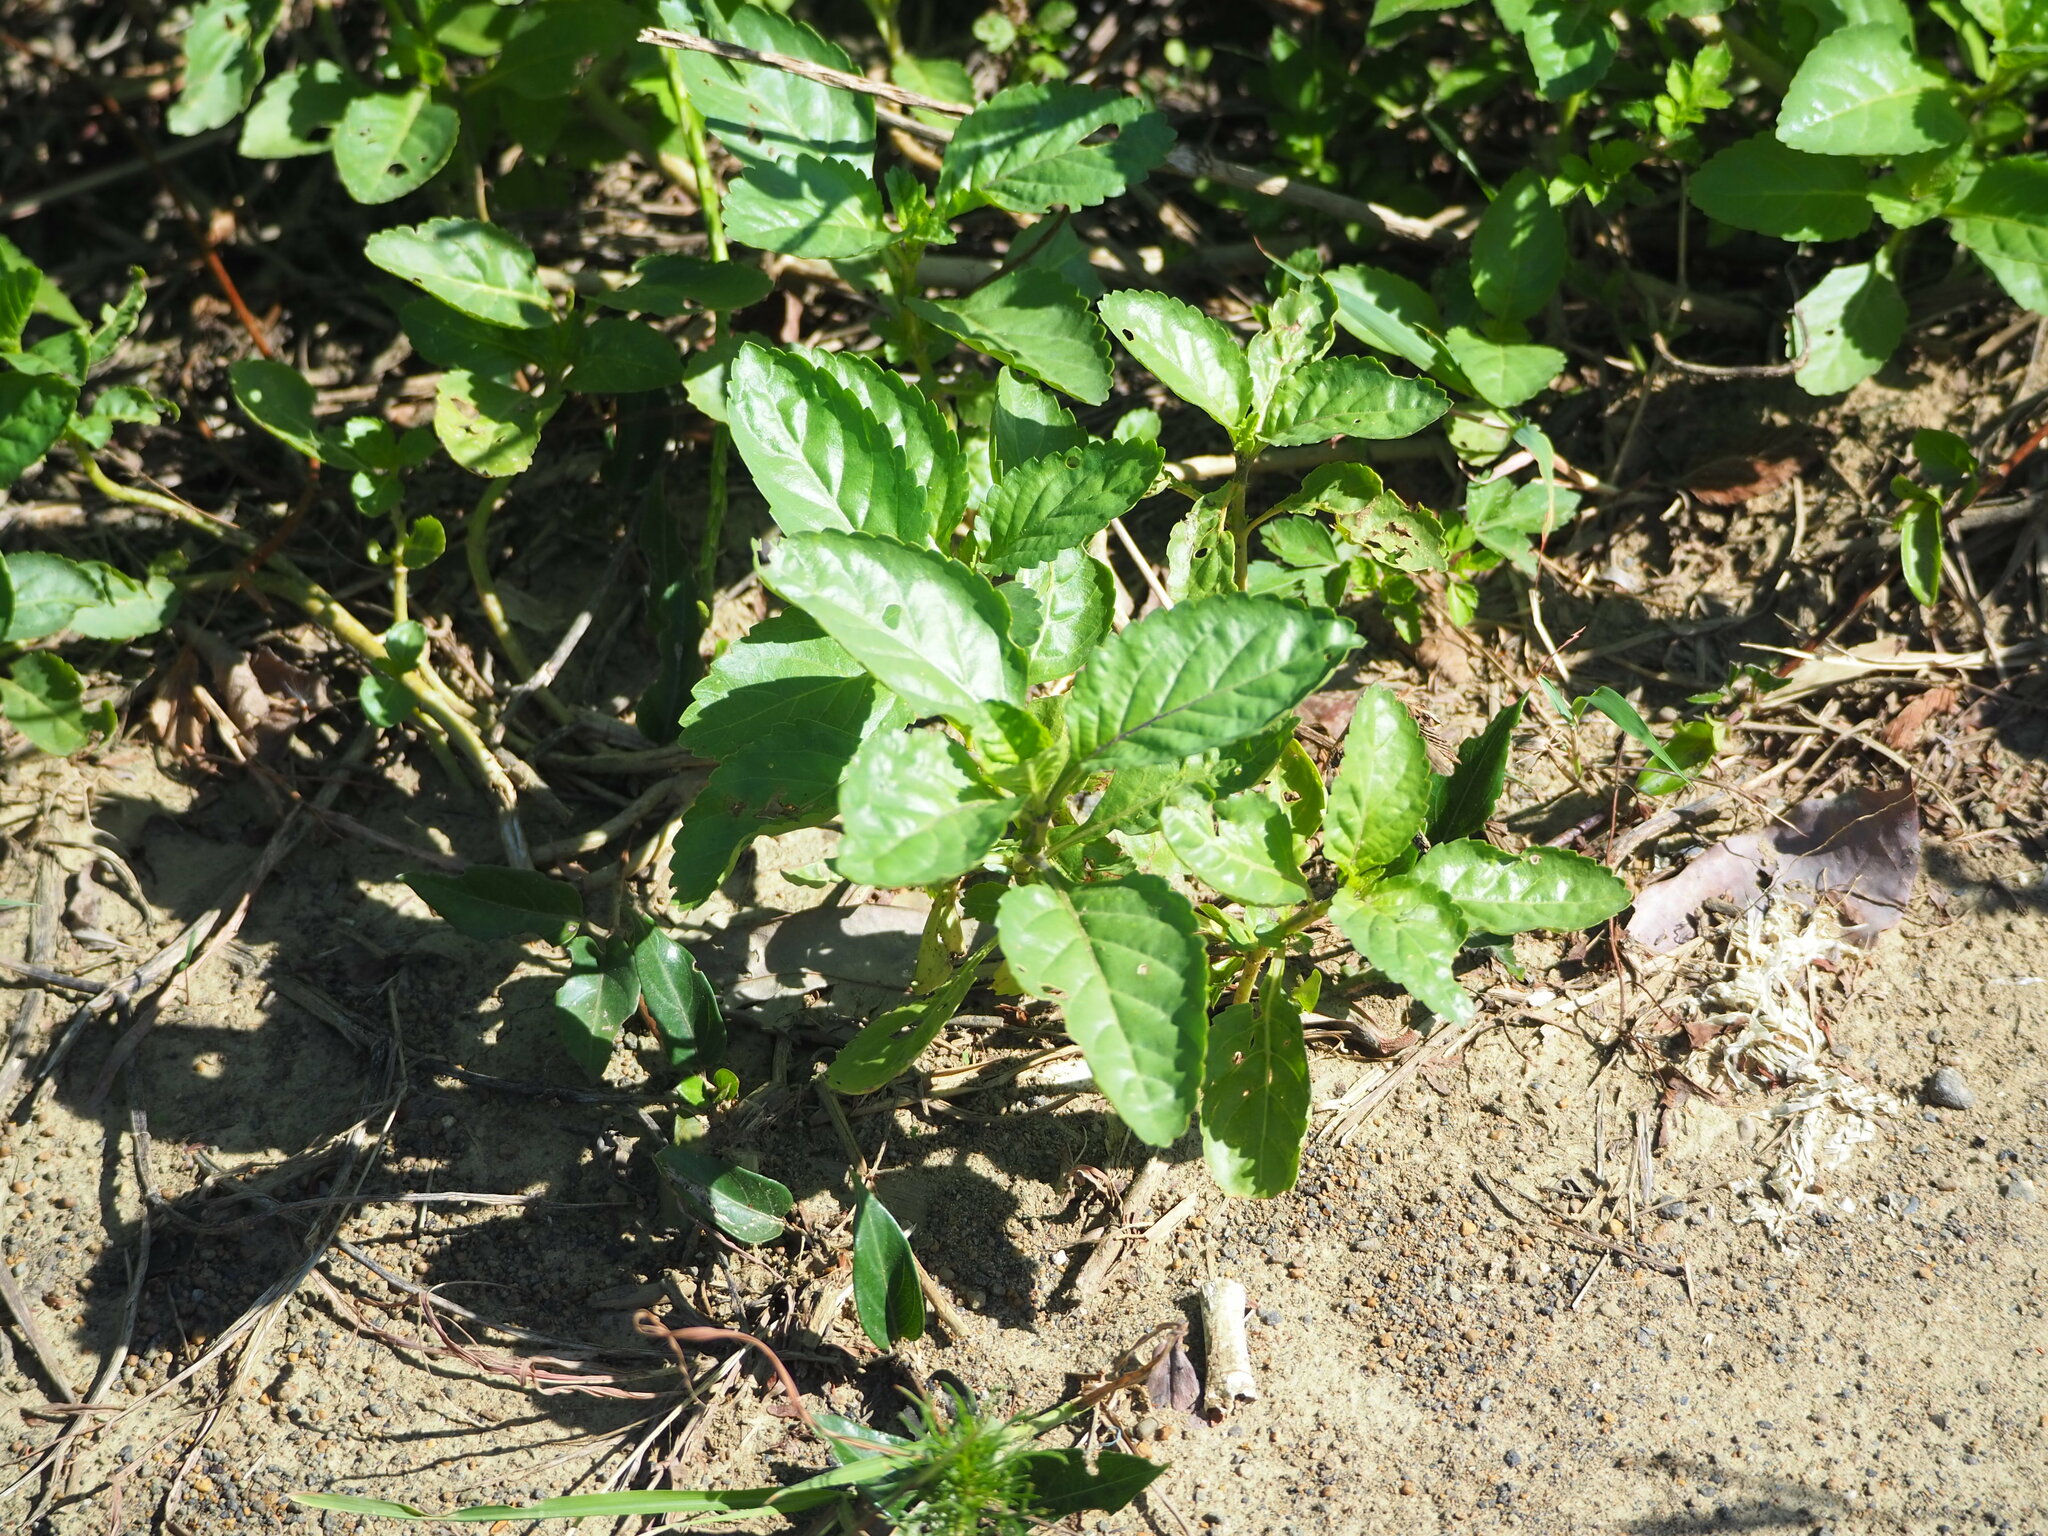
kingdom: Plantae
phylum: Tracheophyta
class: Magnoliopsida
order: Lamiales
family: Verbenaceae
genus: Stachytarpheta
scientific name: Stachytarpheta jamaicensis
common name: Light-blue snakeweed
